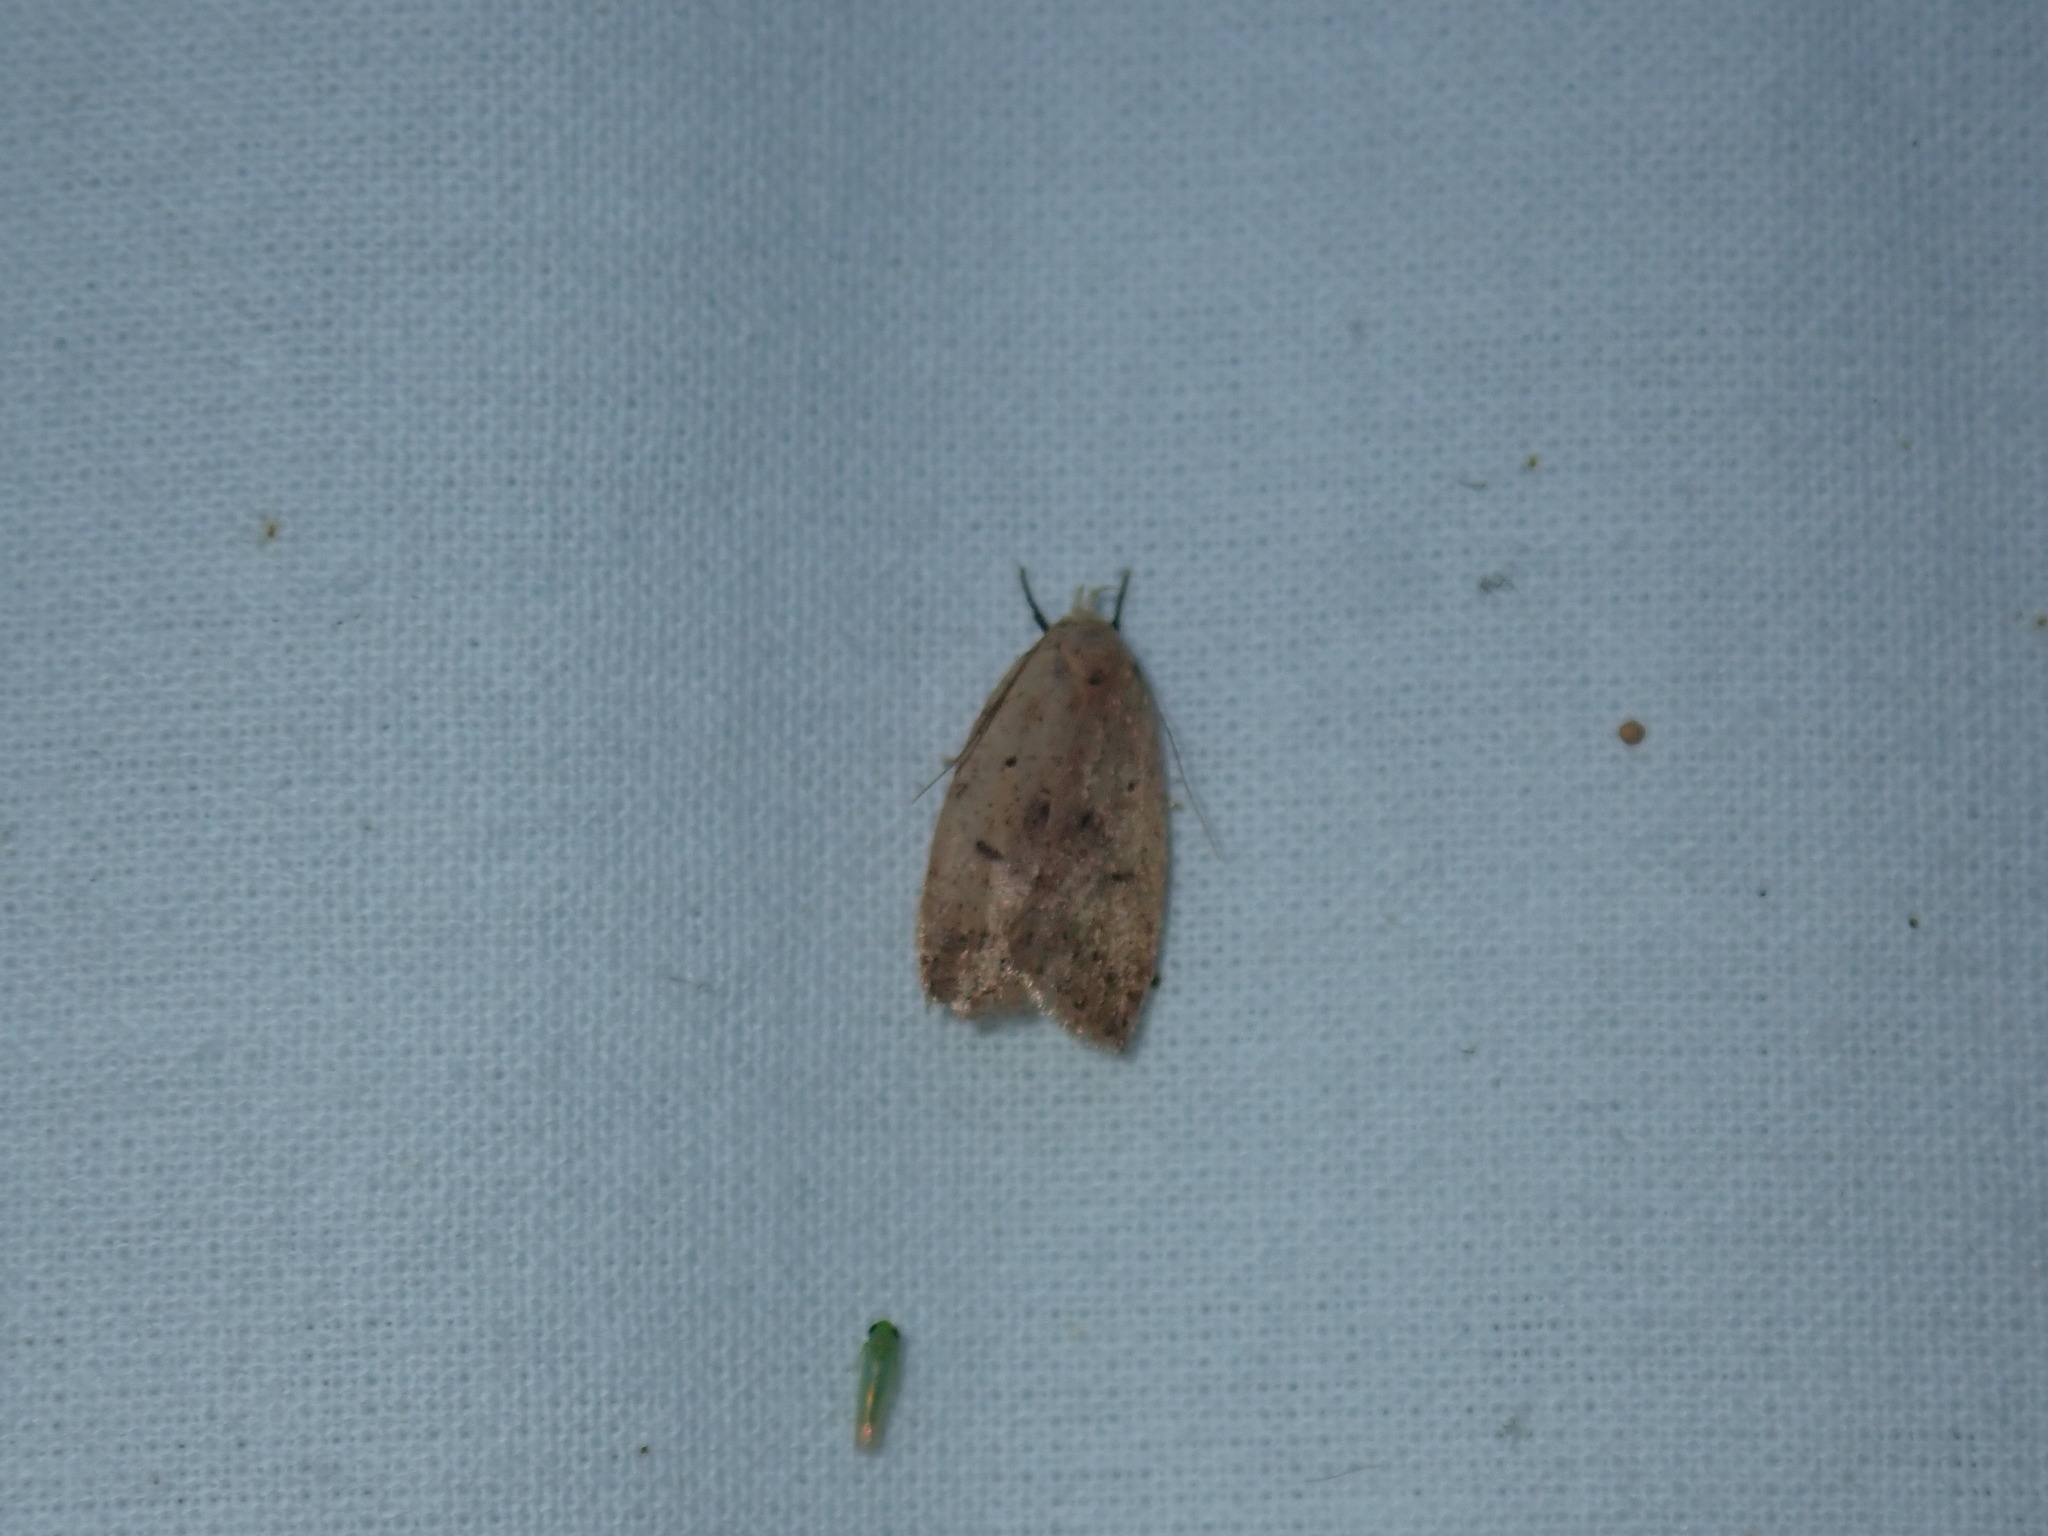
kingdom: Animalia
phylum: Arthropoda
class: Insecta
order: Lepidoptera
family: Peleopodidae
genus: Machimia
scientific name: Machimia tentoriferella
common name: Gold-striped leaftier moth
